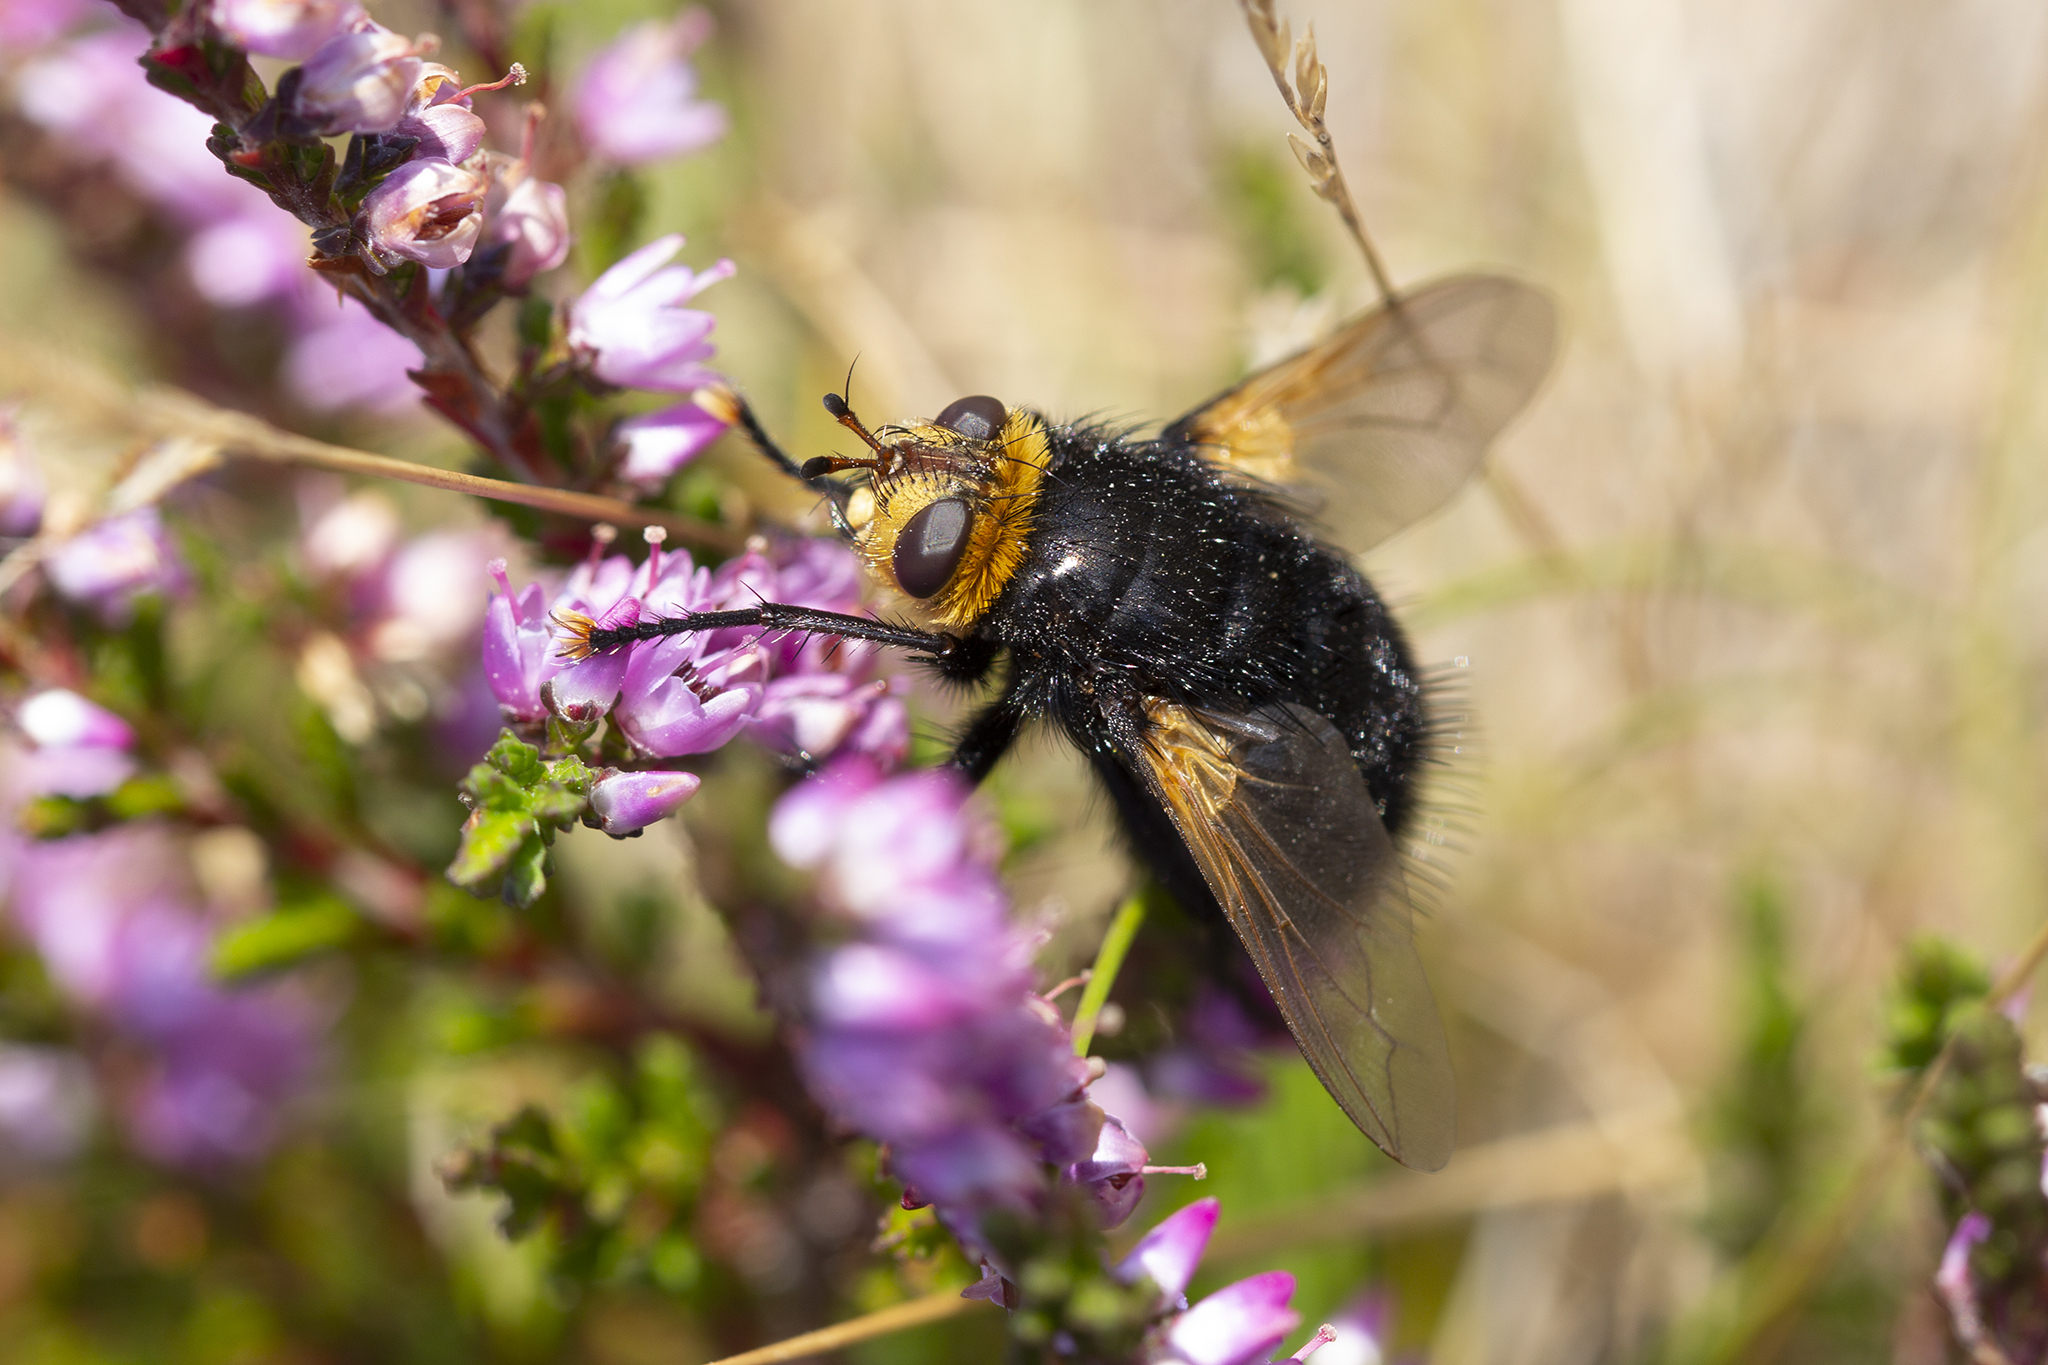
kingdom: Animalia
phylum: Arthropoda
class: Insecta
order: Diptera
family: Tachinidae
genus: Tachina
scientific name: Tachina grossa
